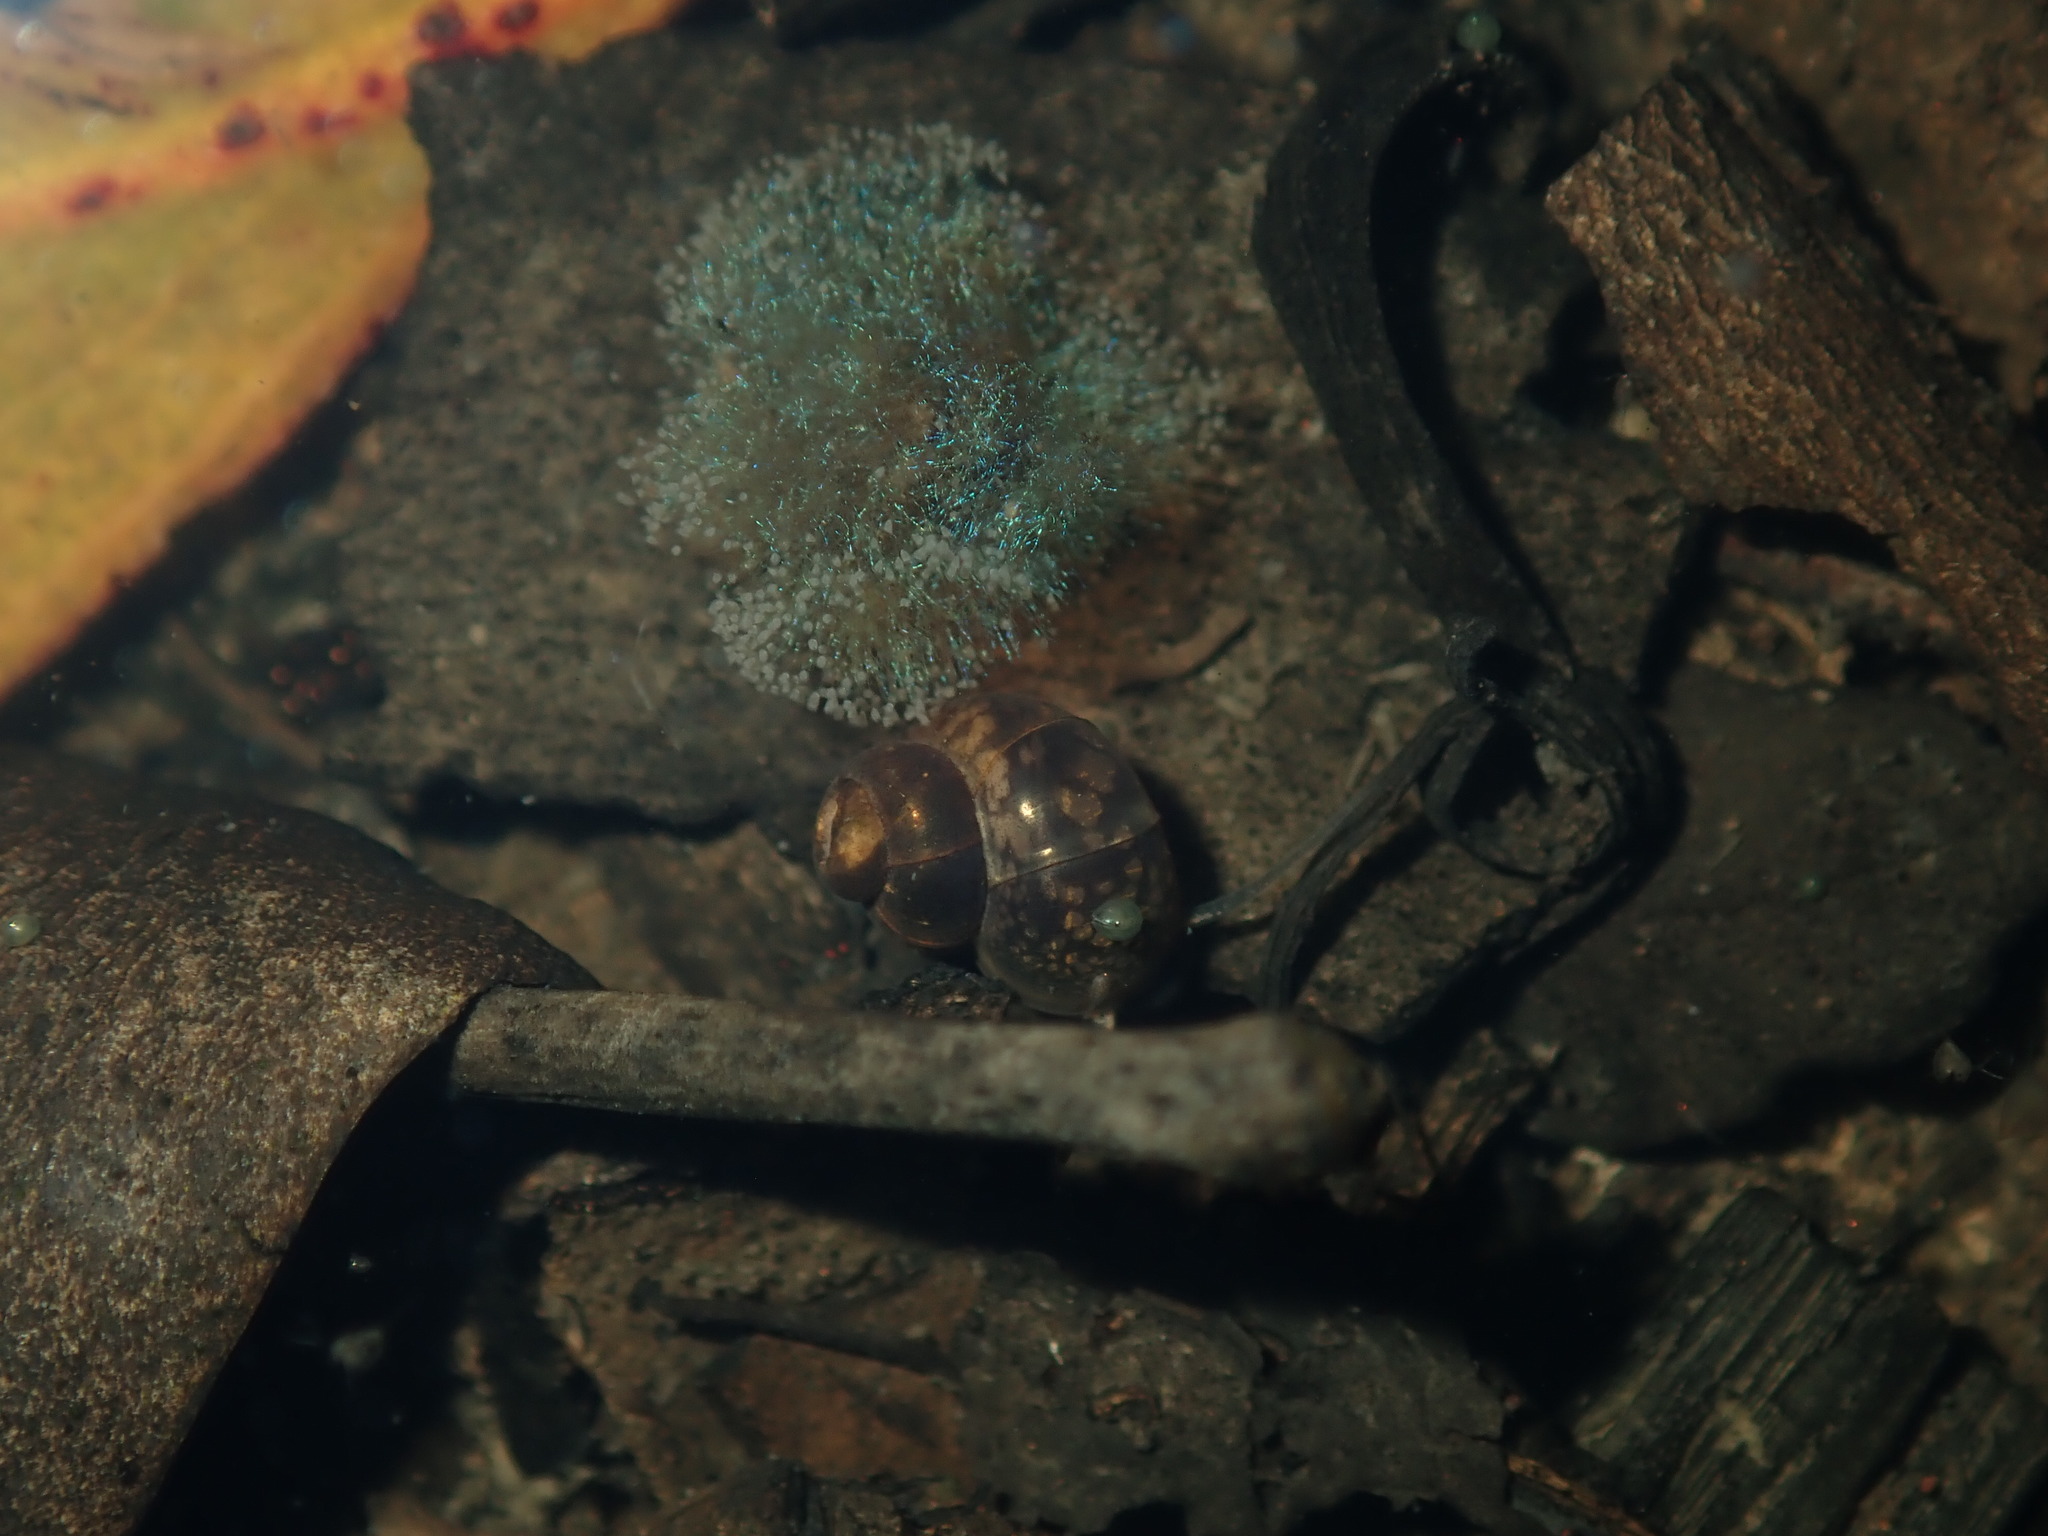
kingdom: Animalia
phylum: Mollusca
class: Gastropoda
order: Littorinimorpha
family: Bithyniidae
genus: Gabbia
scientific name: Gabbia vertiginosa
